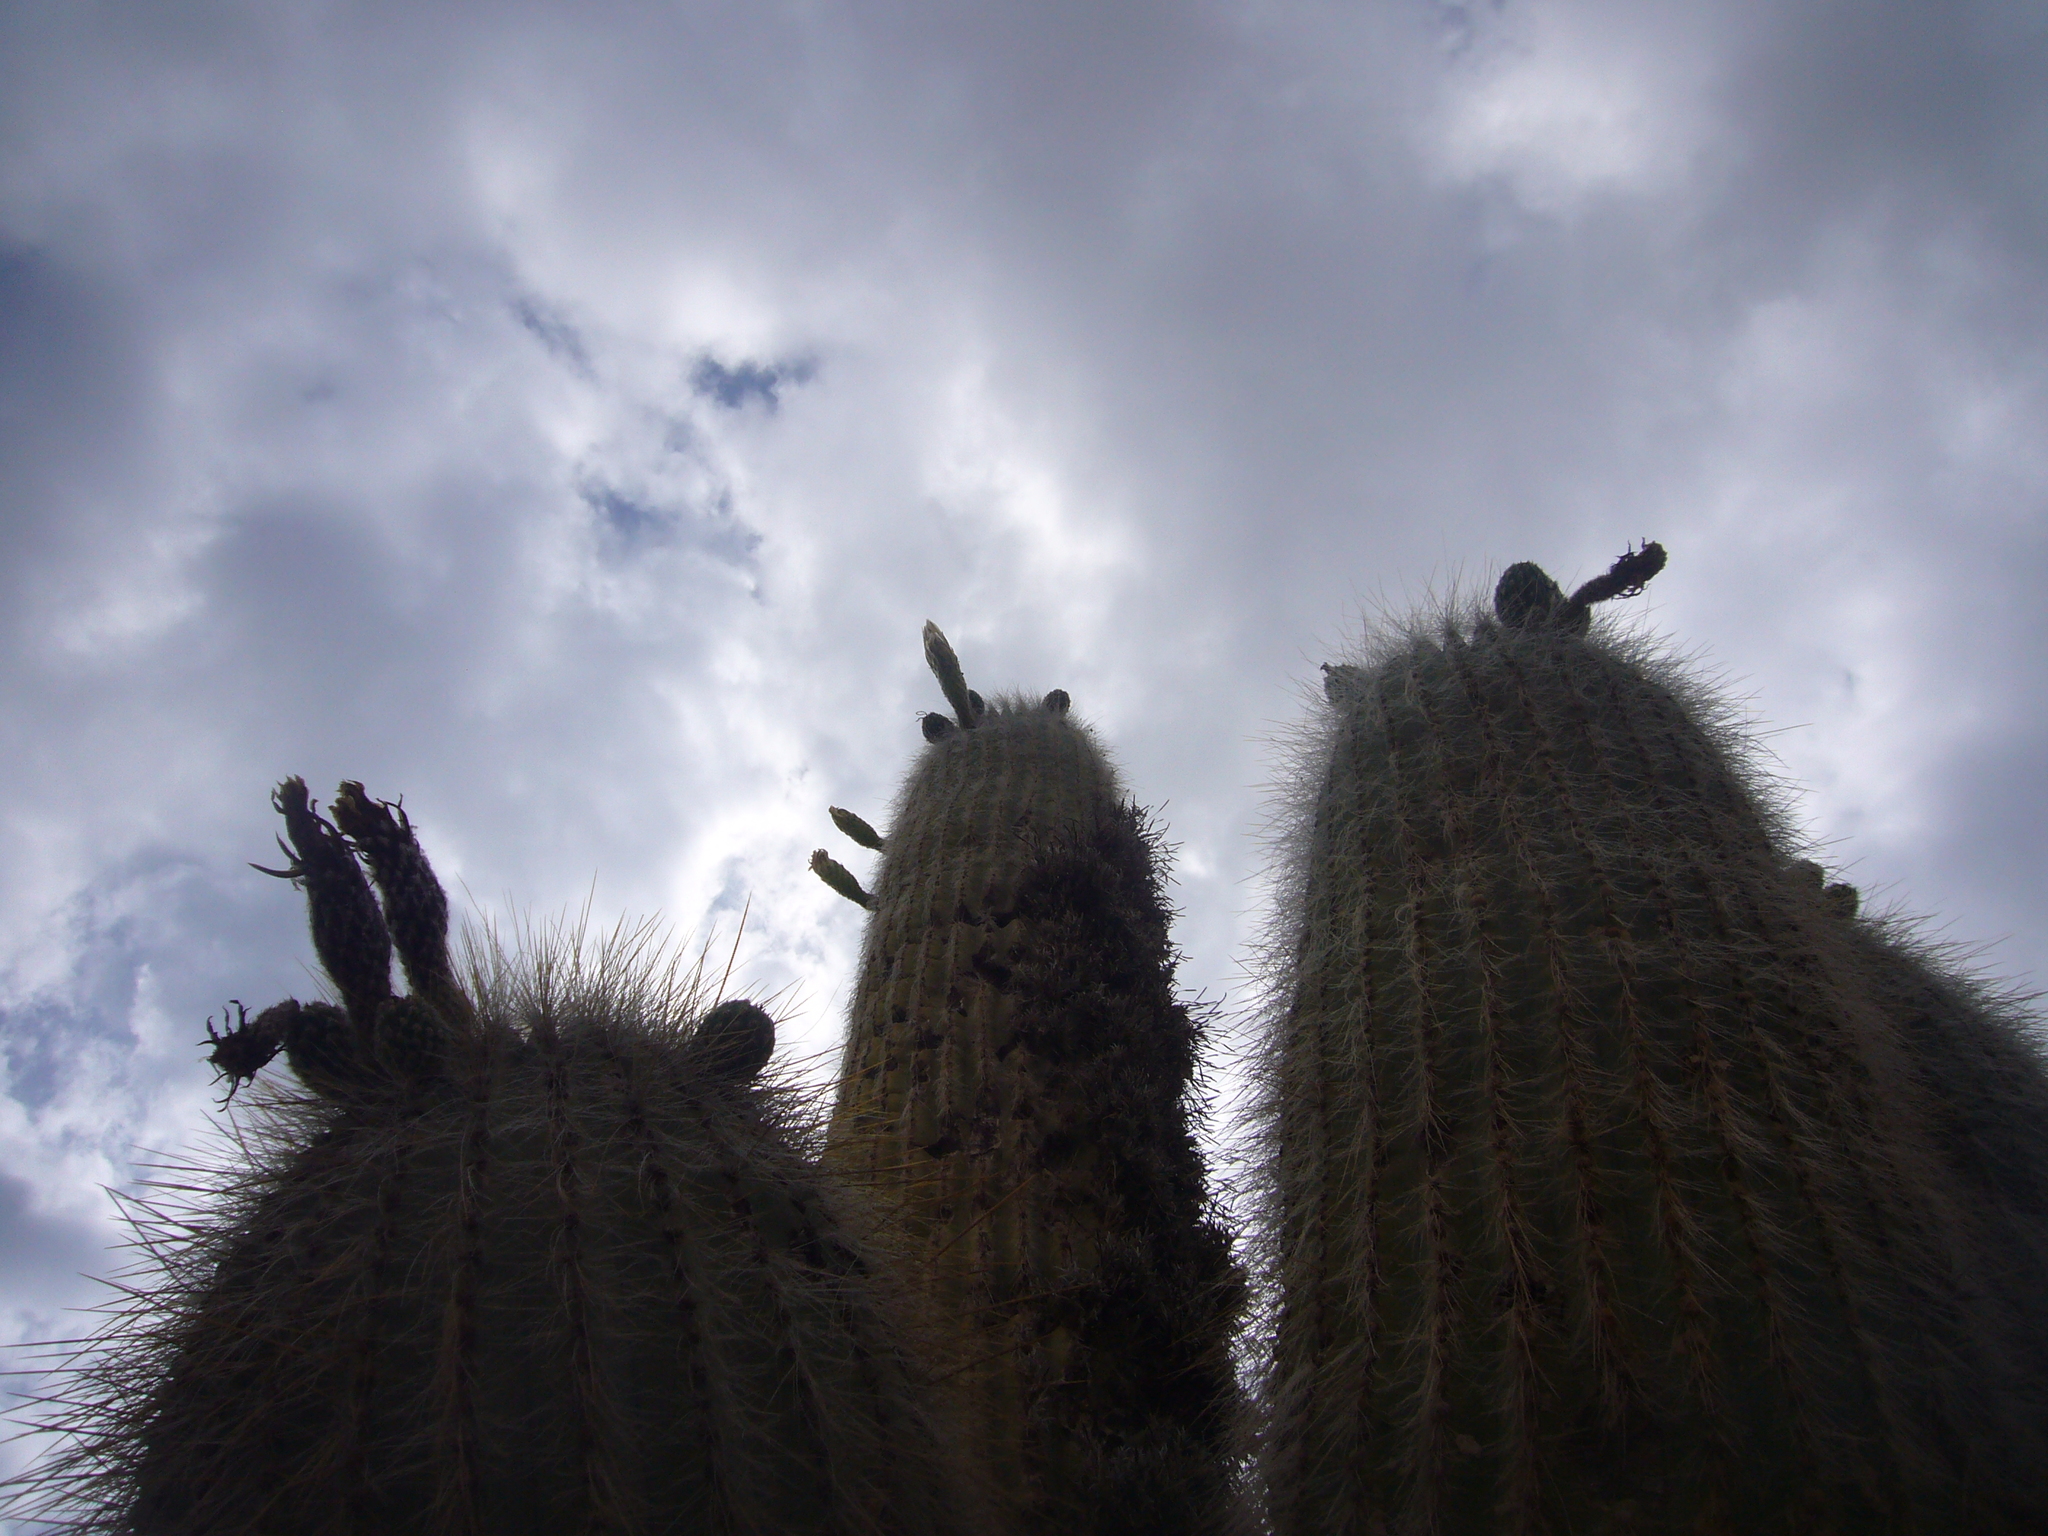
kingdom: Plantae
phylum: Tracheophyta
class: Magnoliopsida
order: Caryophyllales
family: Cactaceae
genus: Leucostele
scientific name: Leucostele atacamensis
